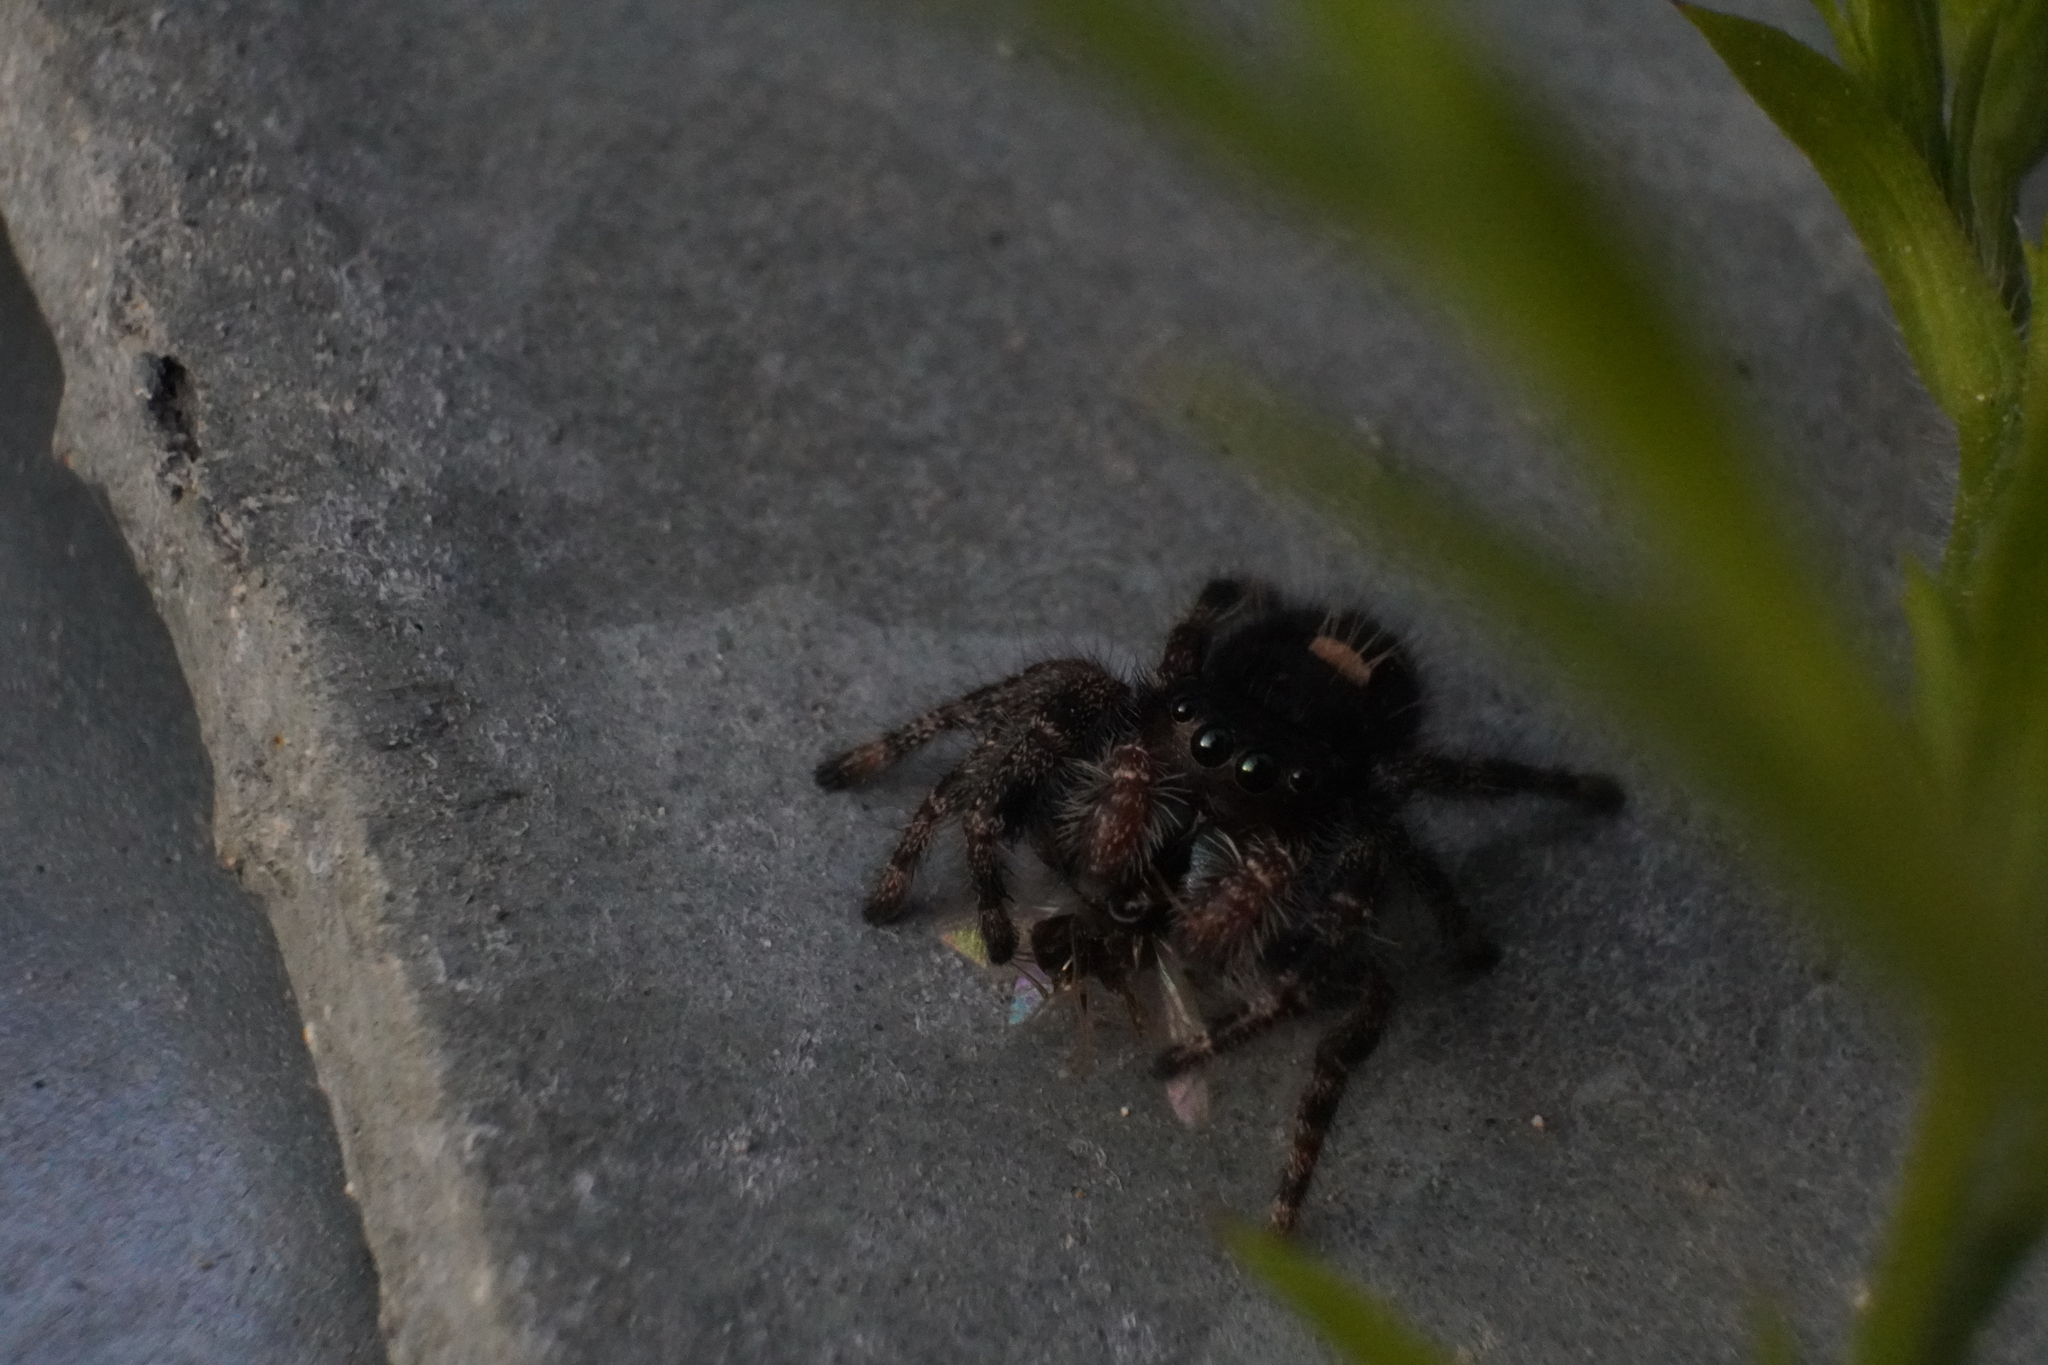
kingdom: Animalia
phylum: Arthropoda
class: Arachnida
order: Araneae
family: Salticidae
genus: Phidippus
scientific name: Phidippus audax
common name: Bold jumper
